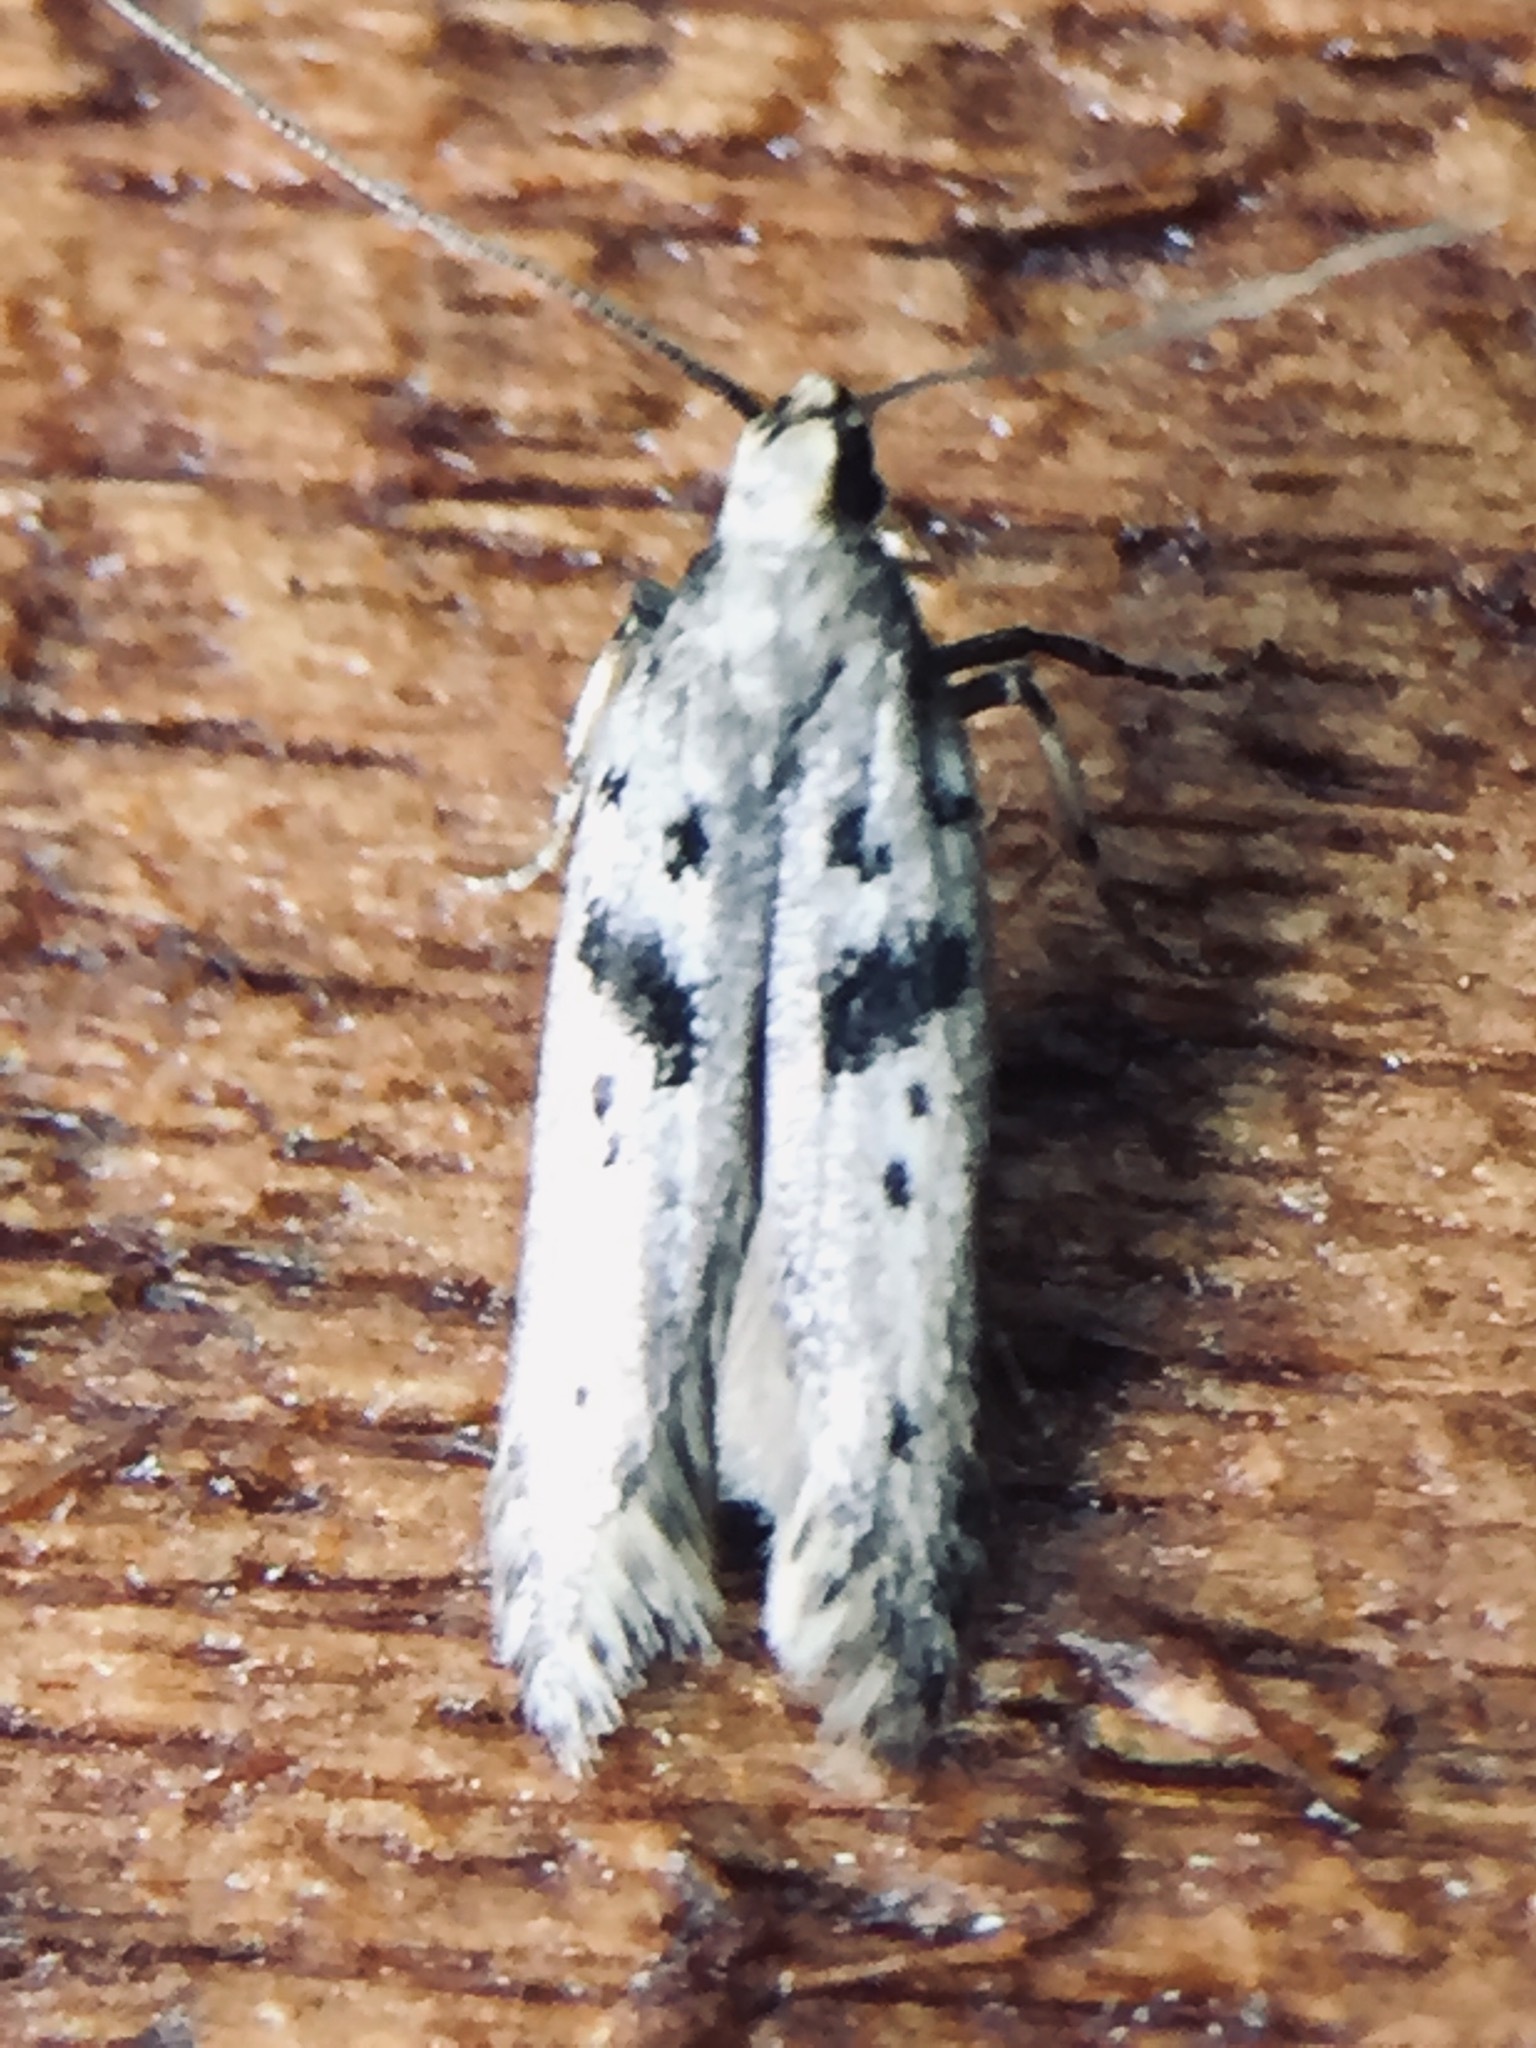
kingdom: Animalia
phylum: Arthropoda
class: Insecta
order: Lepidoptera
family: Gelechiidae
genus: Aristotelia
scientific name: Aristotelia paradesma
